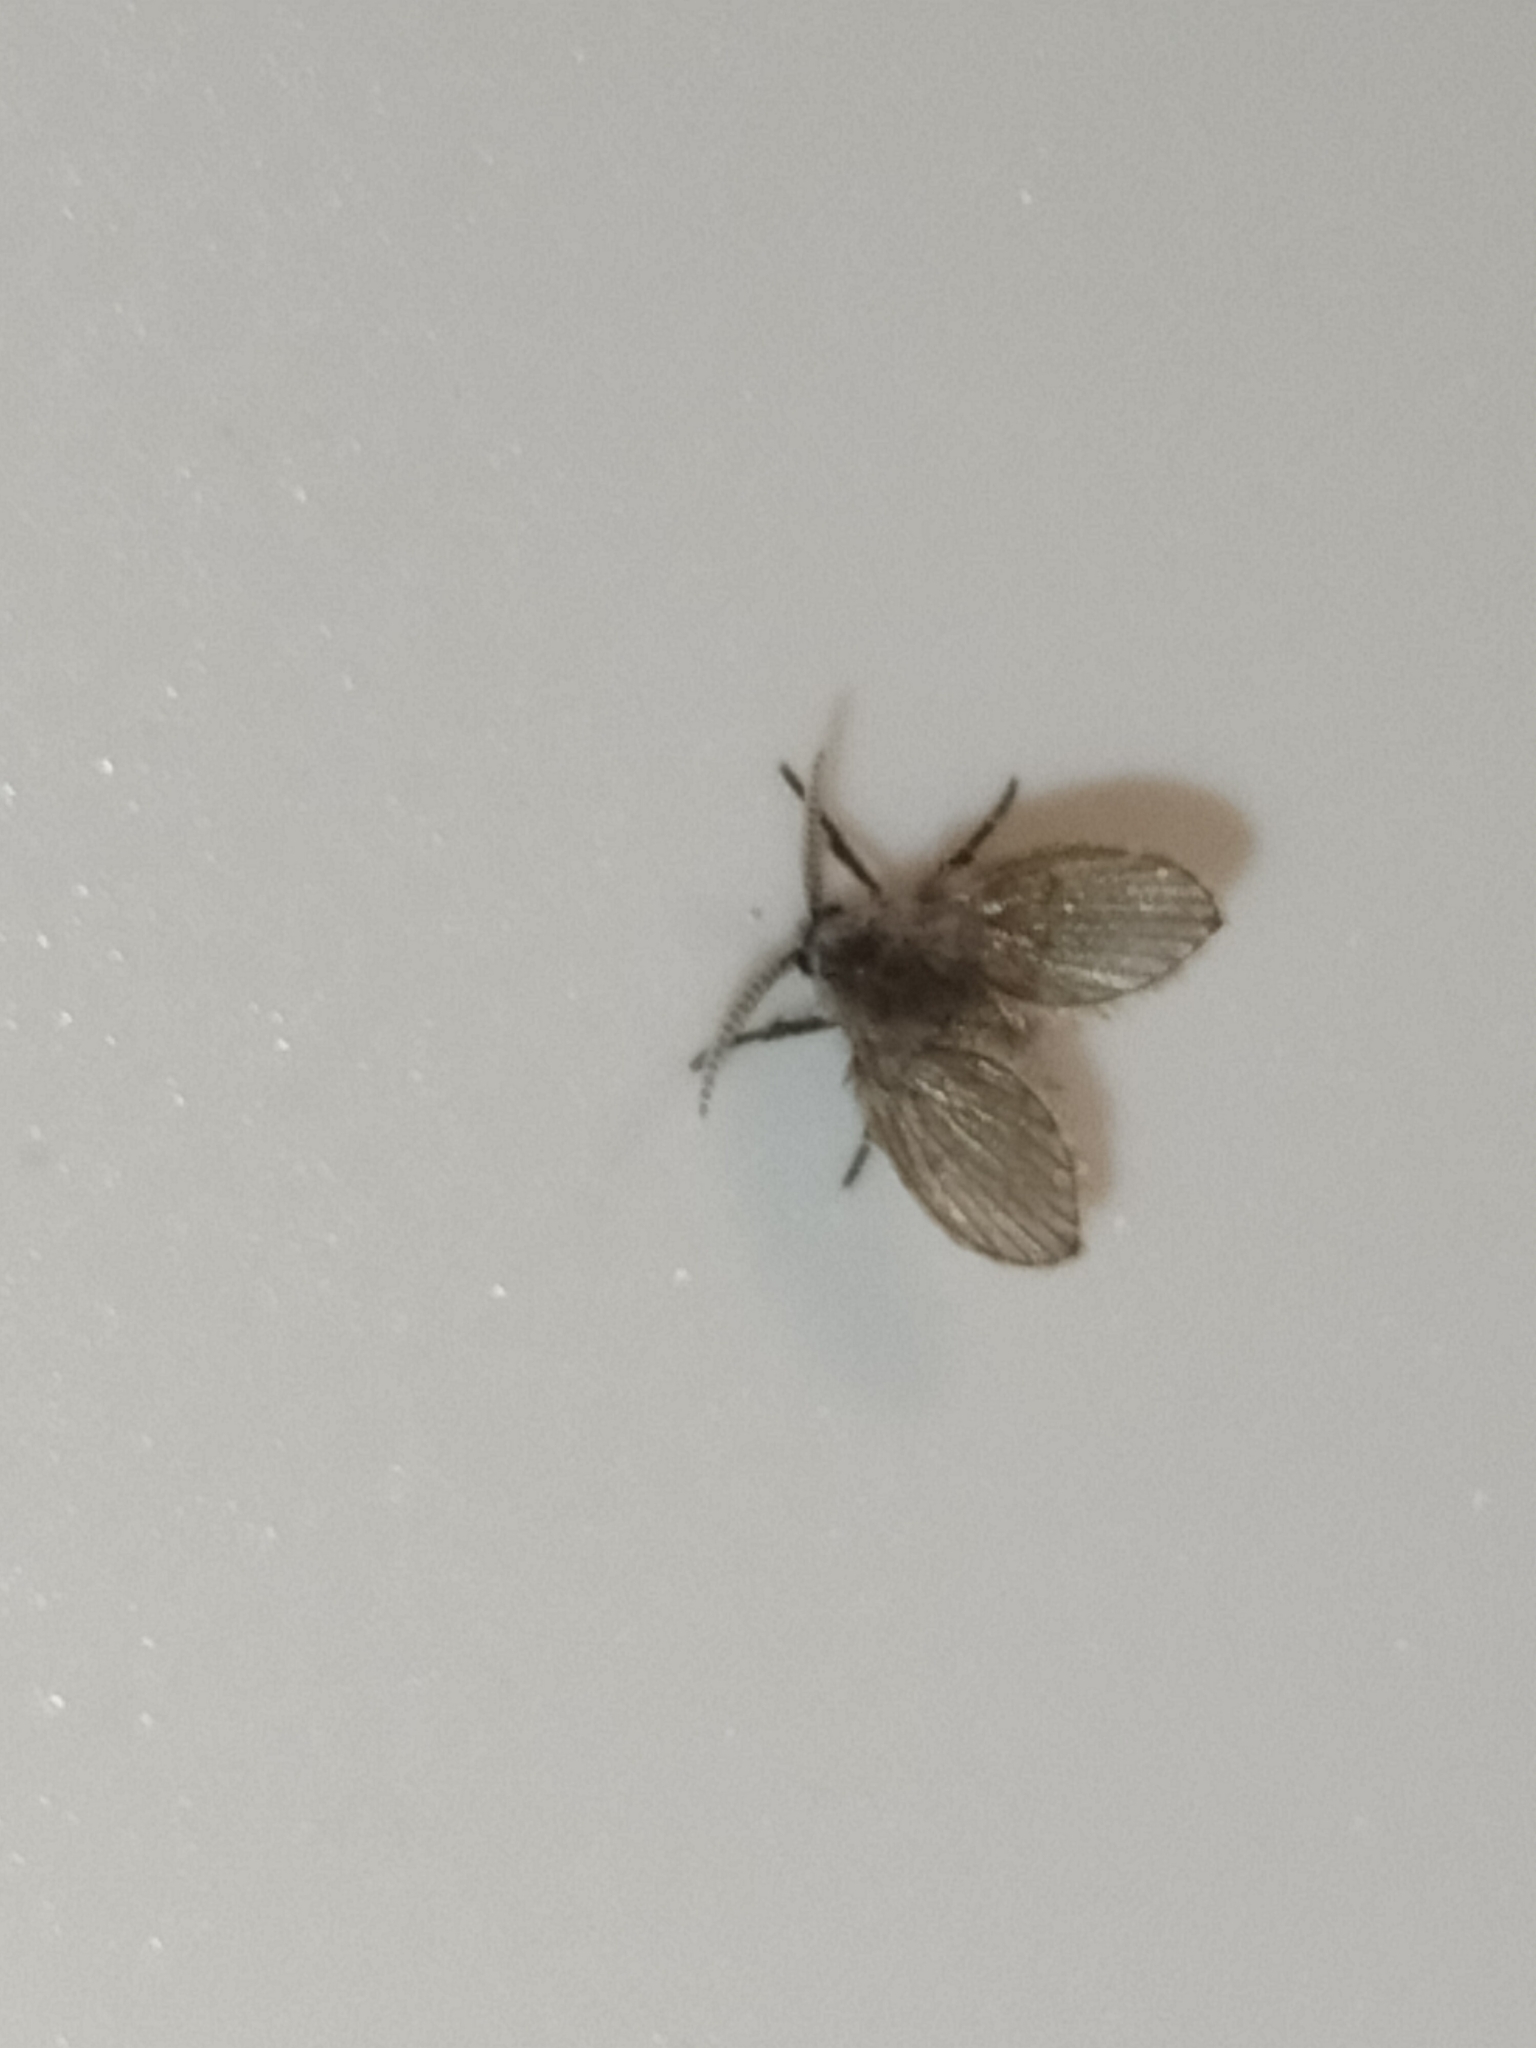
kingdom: Animalia
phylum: Arthropoda
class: Insecta
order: Diptera
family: Psychodidae
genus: Clogmia
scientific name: Clogmia albipunctatus
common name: White-spotted moth fly
